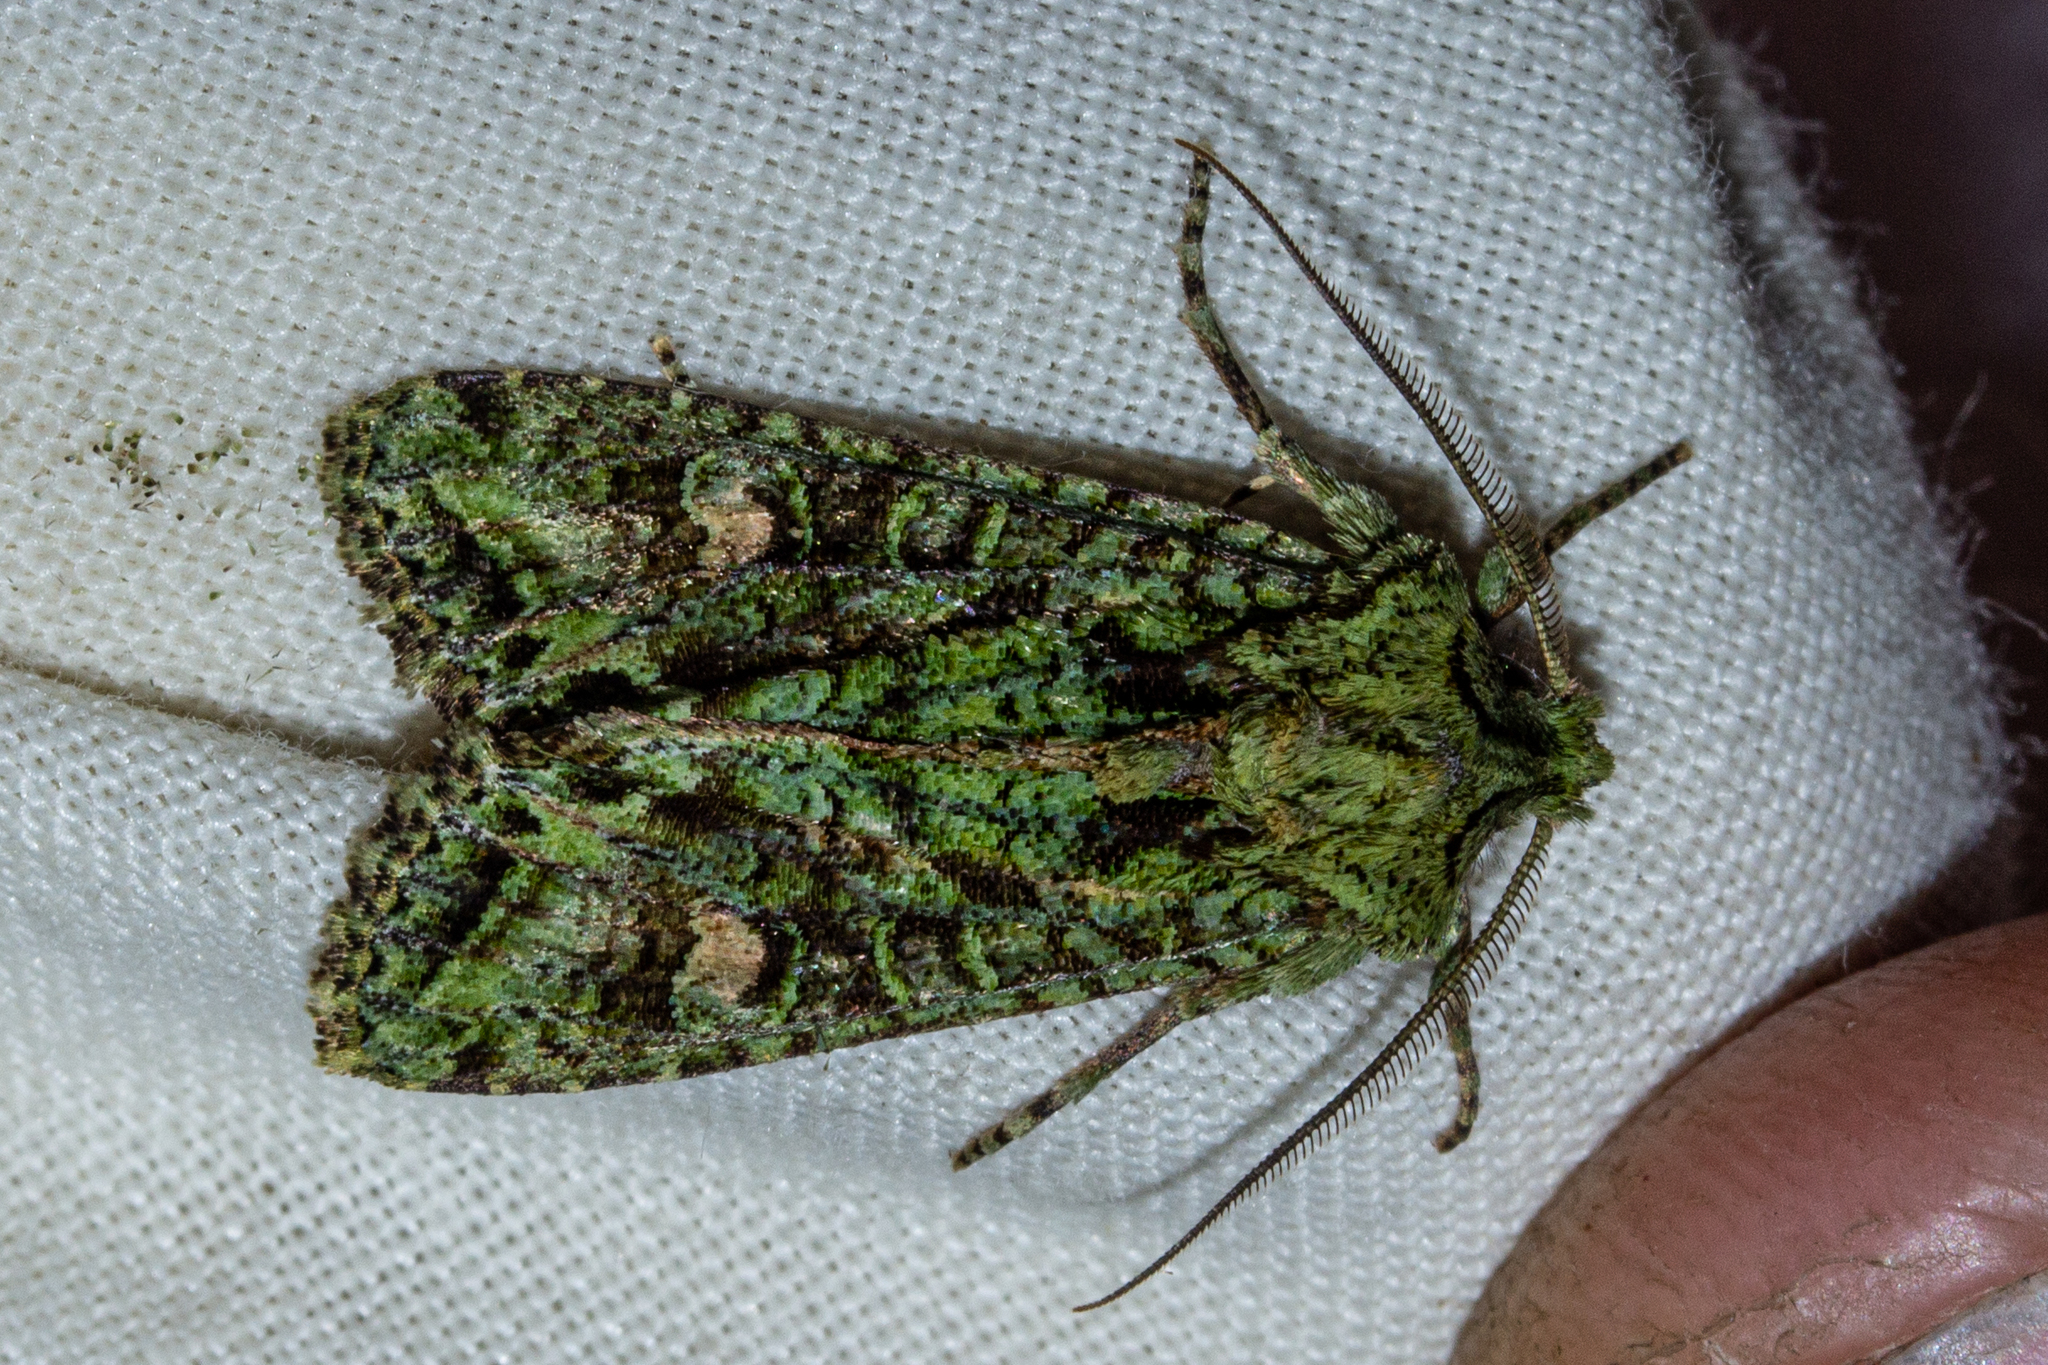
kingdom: Animalia
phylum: Arthropoda
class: Insecta
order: Lepidoptera
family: Noctuidae
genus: Ichneutica
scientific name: Ichneutica
